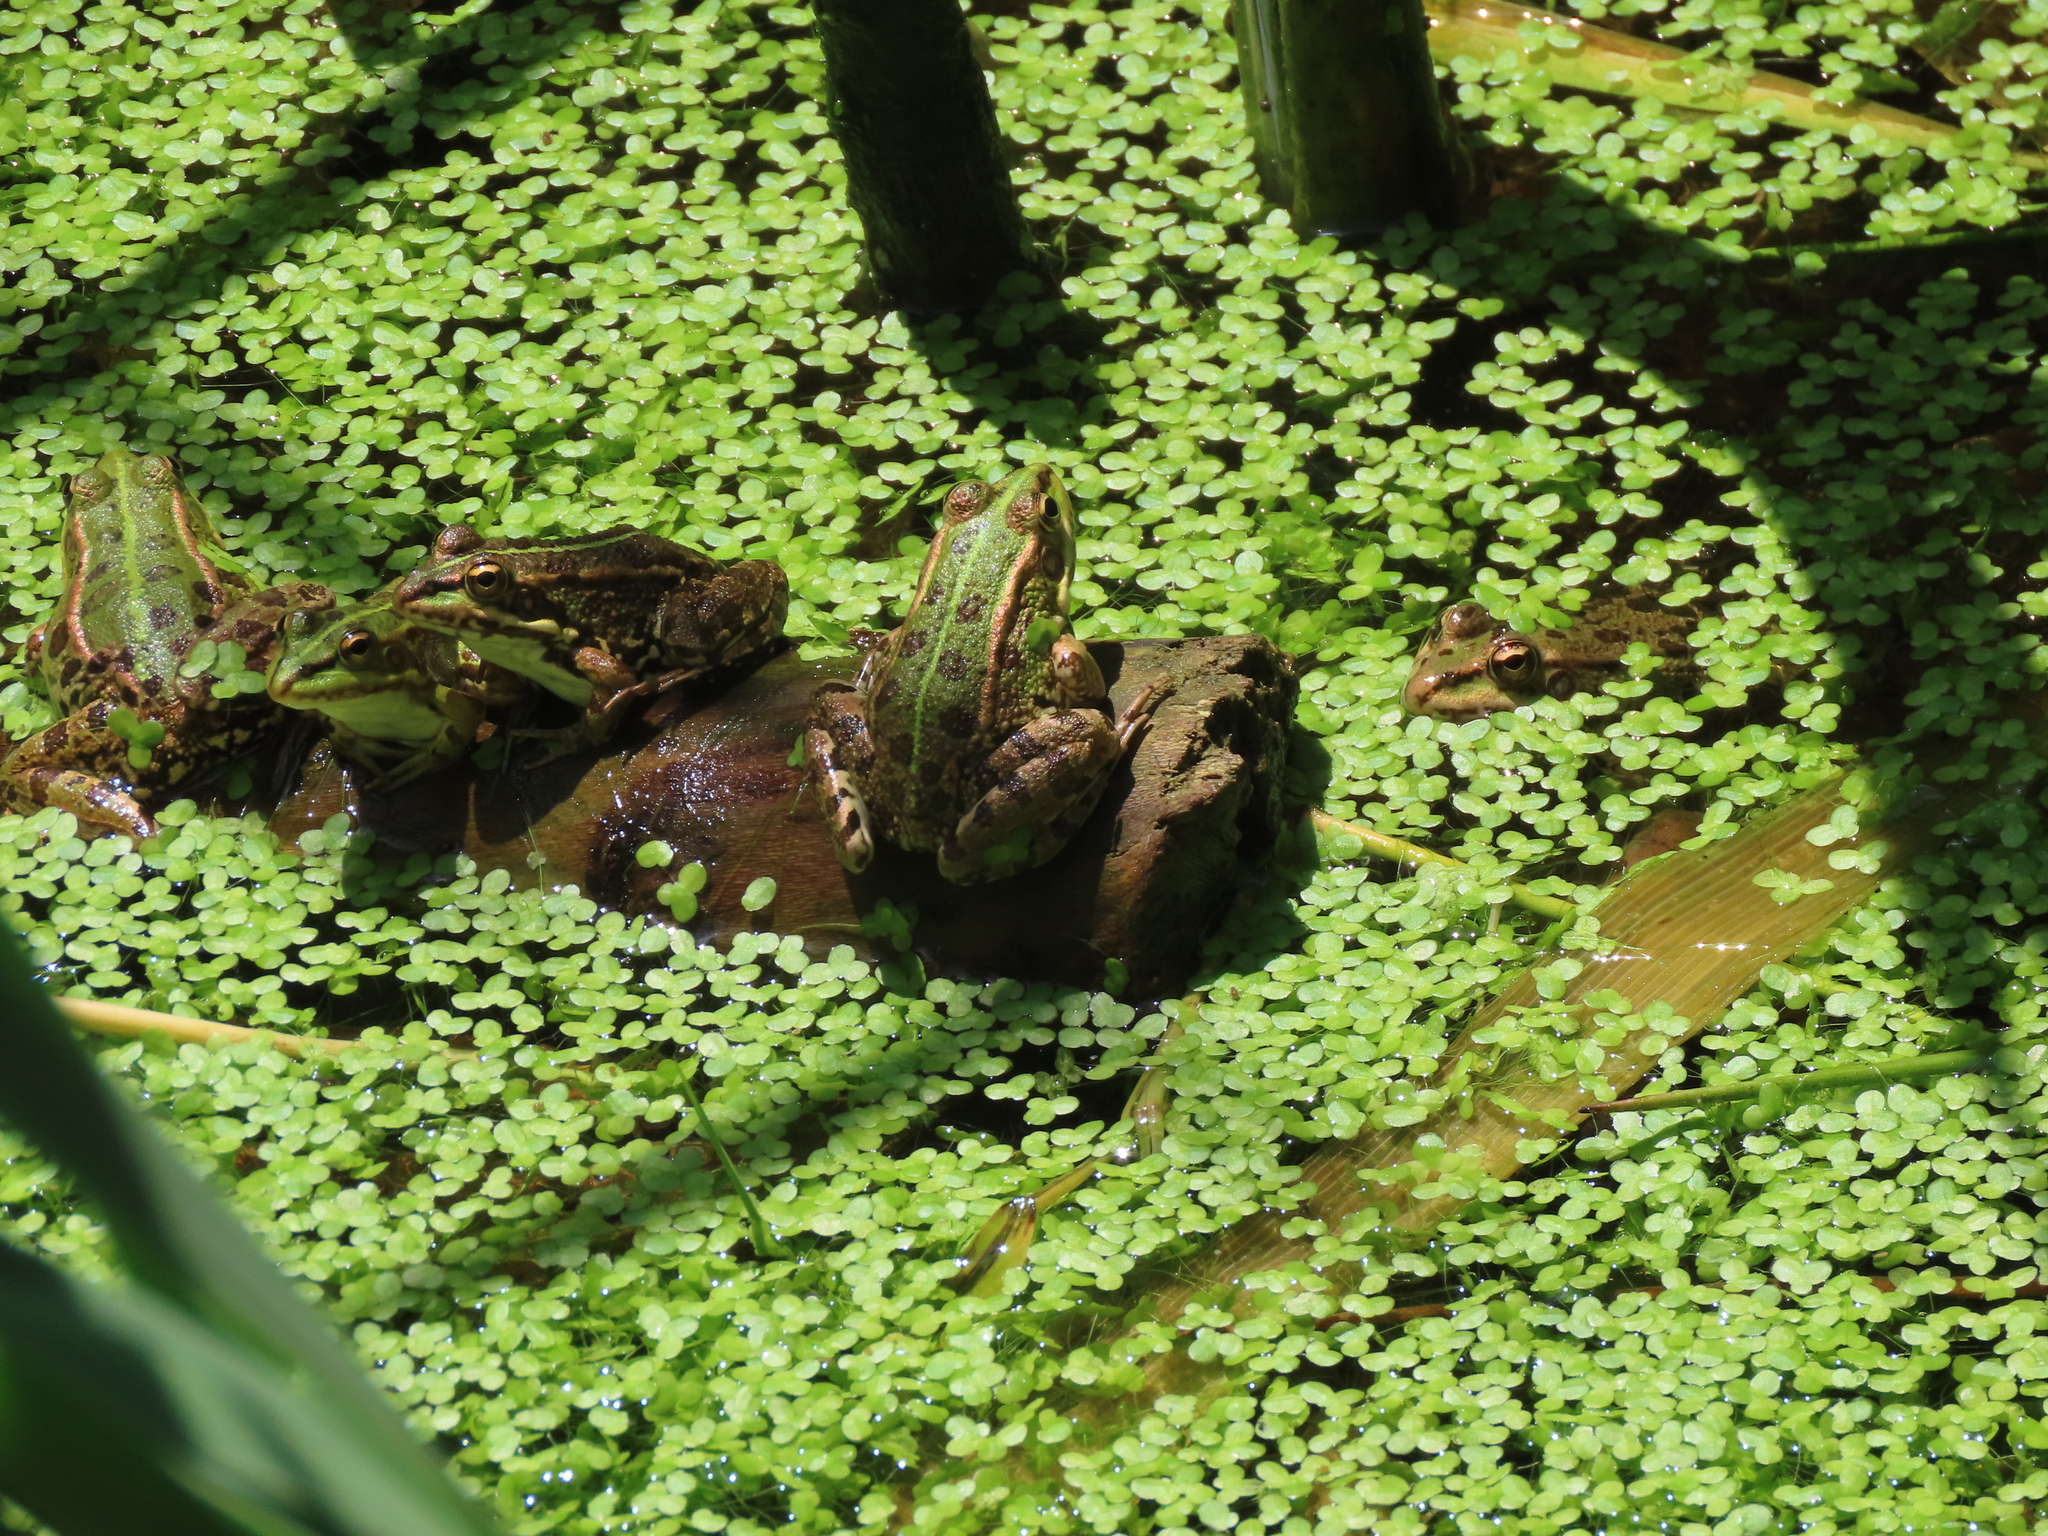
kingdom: Animalia
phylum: Chordata
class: Amphibia
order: Anura
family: Ranidae
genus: Pelophylax
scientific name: Pelophylax perezi
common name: Perez's frog
